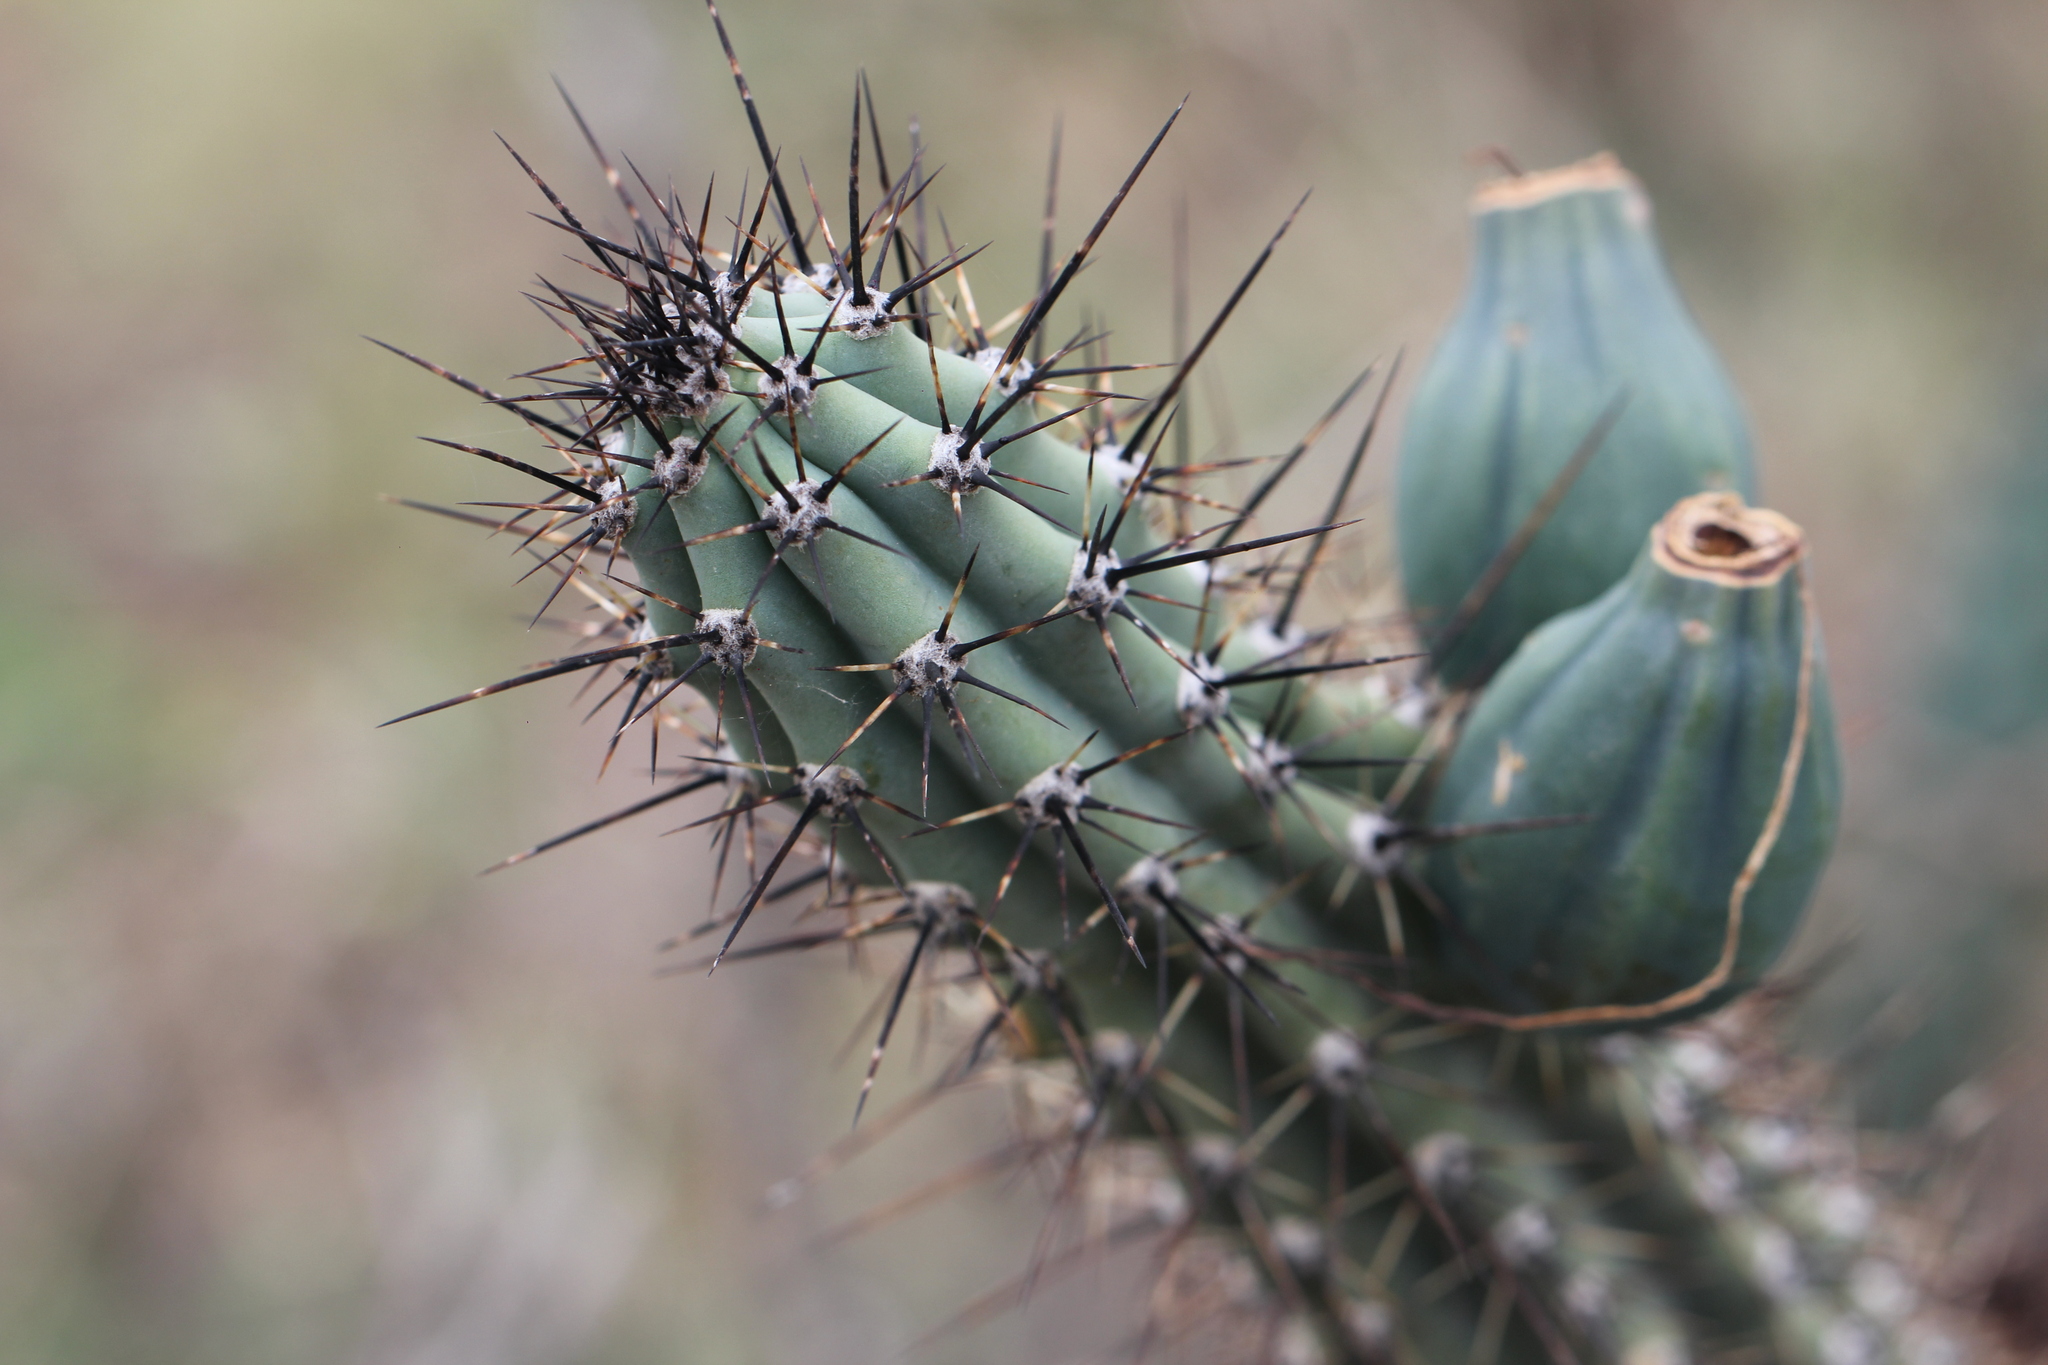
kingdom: Plantae
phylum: Tracheophyta
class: Magnoliopsida
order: Caryophyllales
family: Cactaceae
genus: Cereus
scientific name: Cereus aethiops
